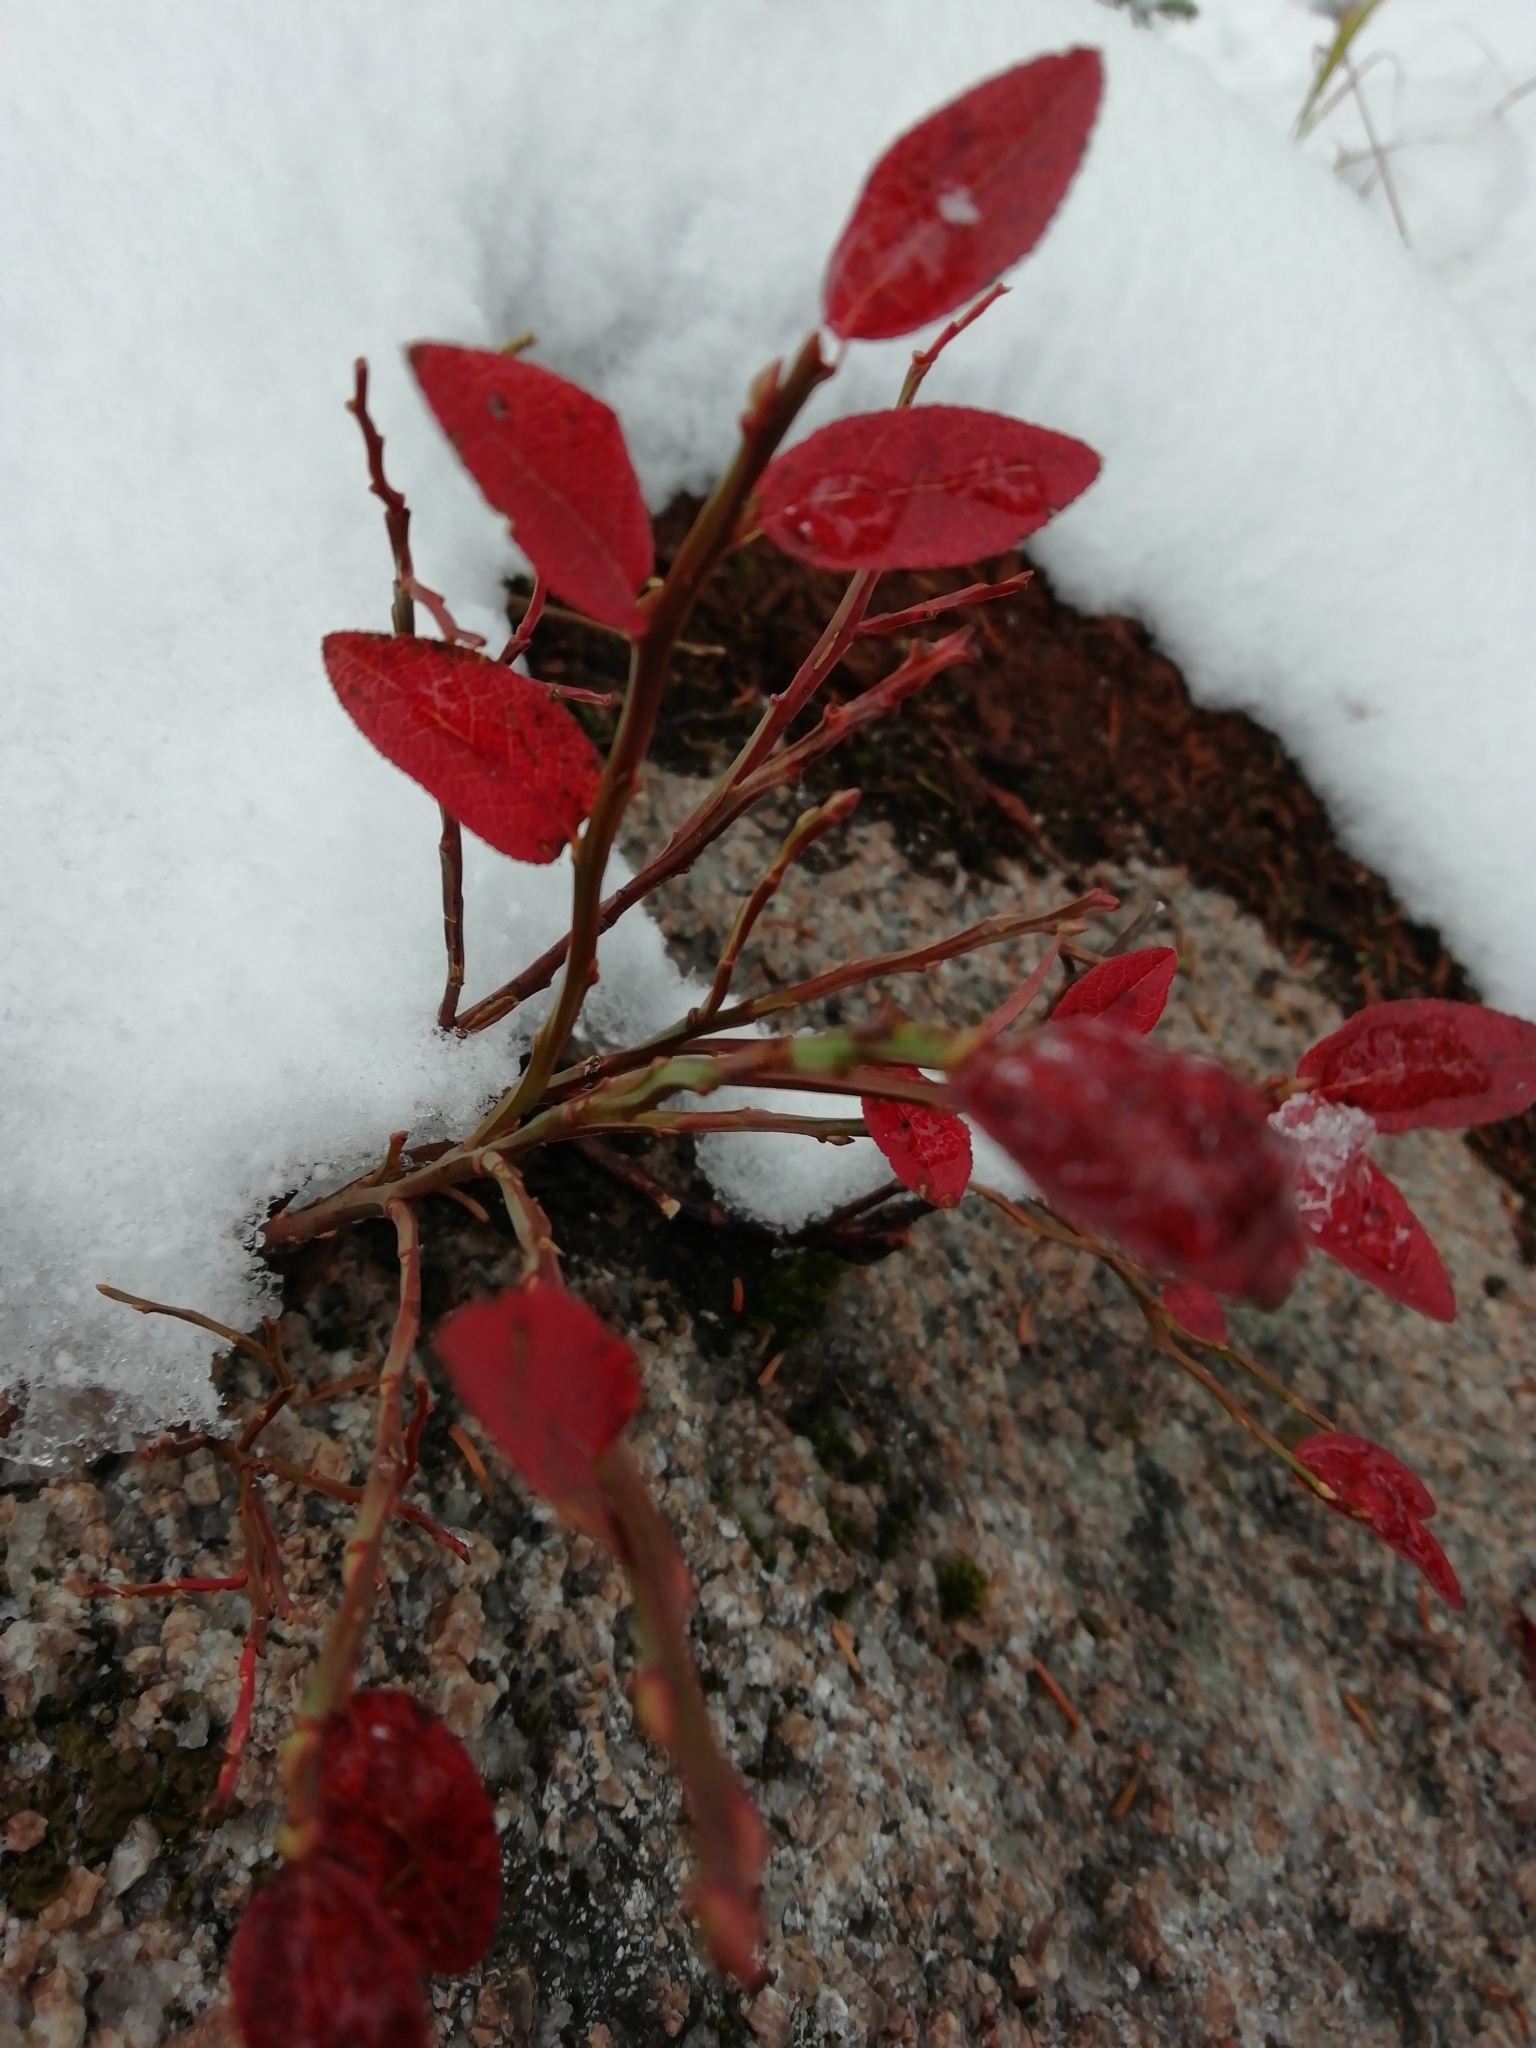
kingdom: Plantae
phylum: Tracheophyta
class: Magnoliopsida
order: Ericales
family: Ericaceae
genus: Vaccinium
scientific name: Vaccinium myrtillus
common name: Bilberry
